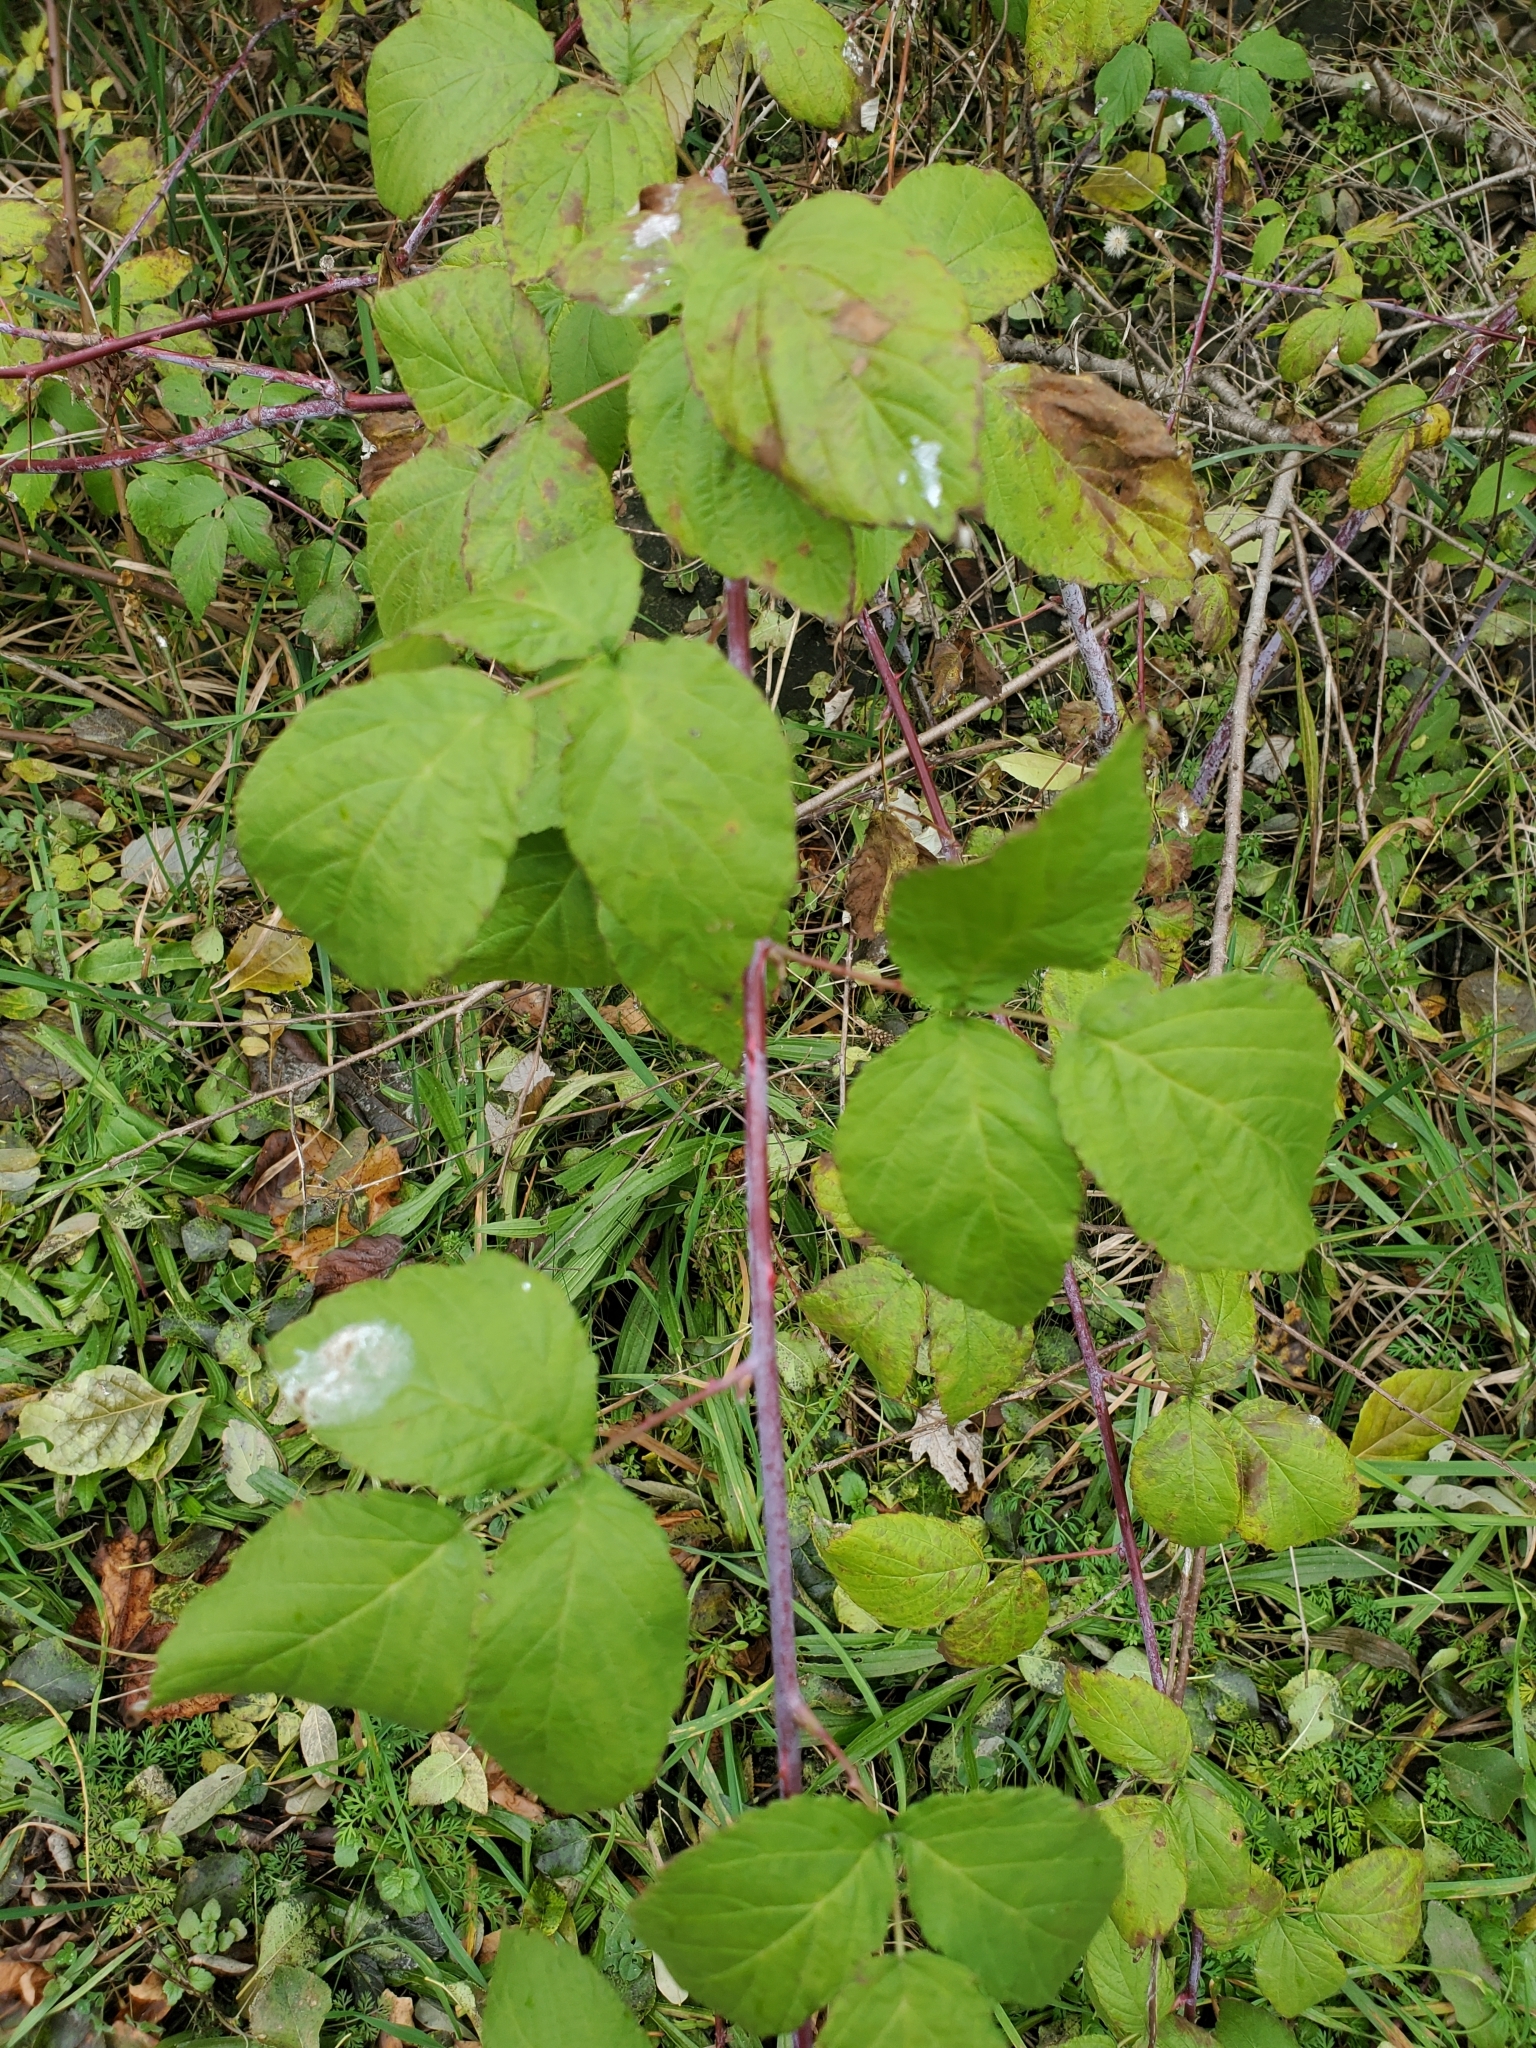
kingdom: Plantae
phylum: Tracheophyta
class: Magnoliopsida
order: Rosales
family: Rosaceae
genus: Rubus
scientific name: Rubus occidentalis
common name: Black raspberry
